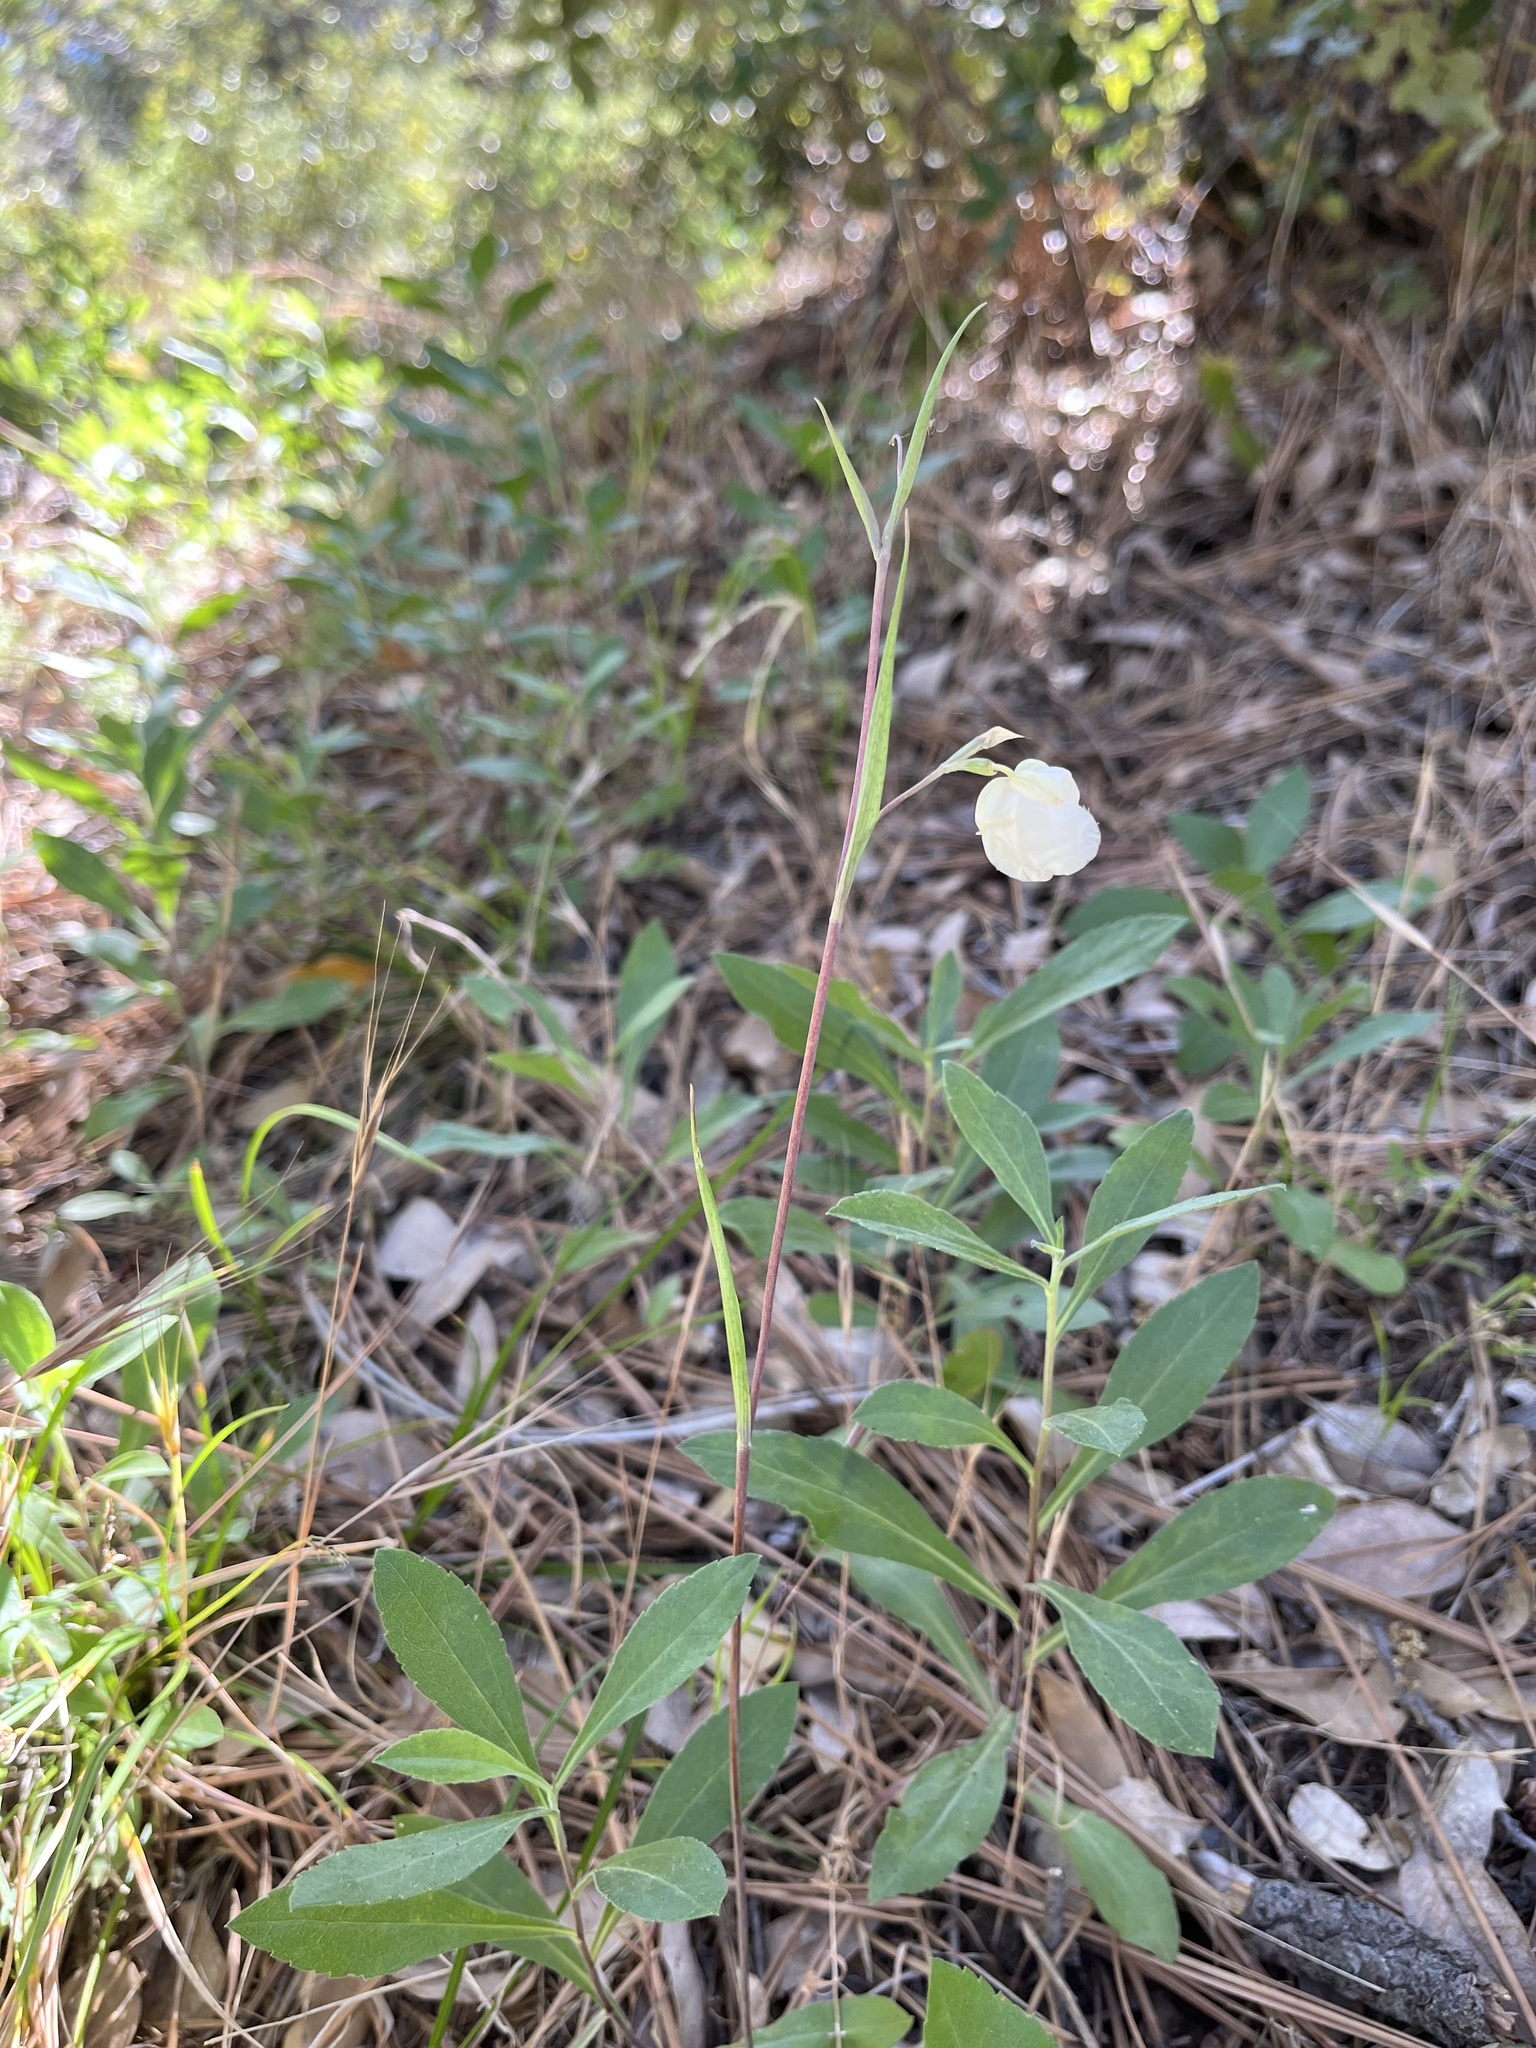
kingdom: Plantae
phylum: Tracheophyta
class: Liliopsida
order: Liliales
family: Liliaceae
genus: Calochortus
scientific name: Calochortus albus
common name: Fairy-lantern
